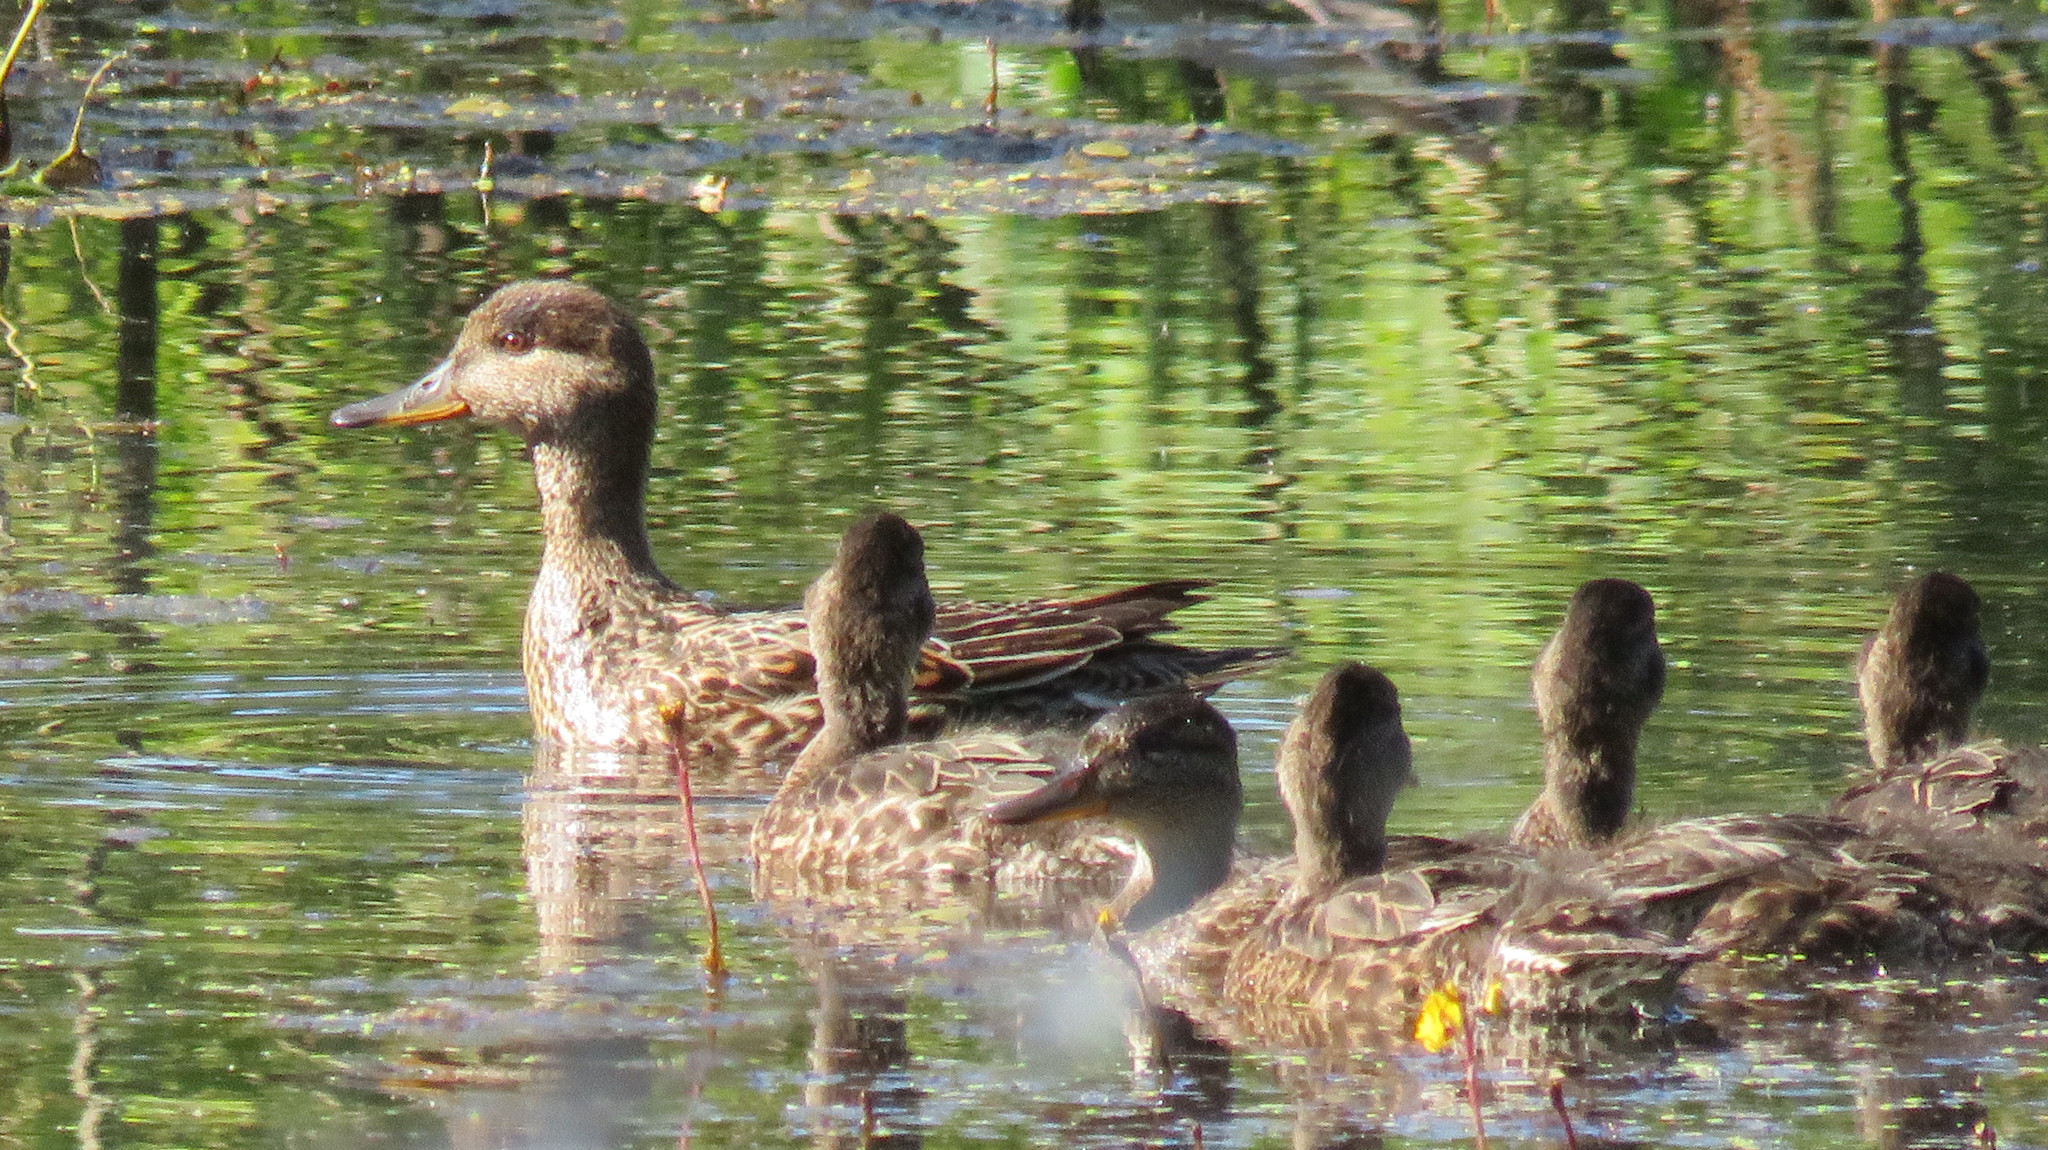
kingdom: Animalia
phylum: Chordata
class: Aves
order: Anseriformes
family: Anatidae
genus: Anas
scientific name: Anas crecca
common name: Eurasian teal
